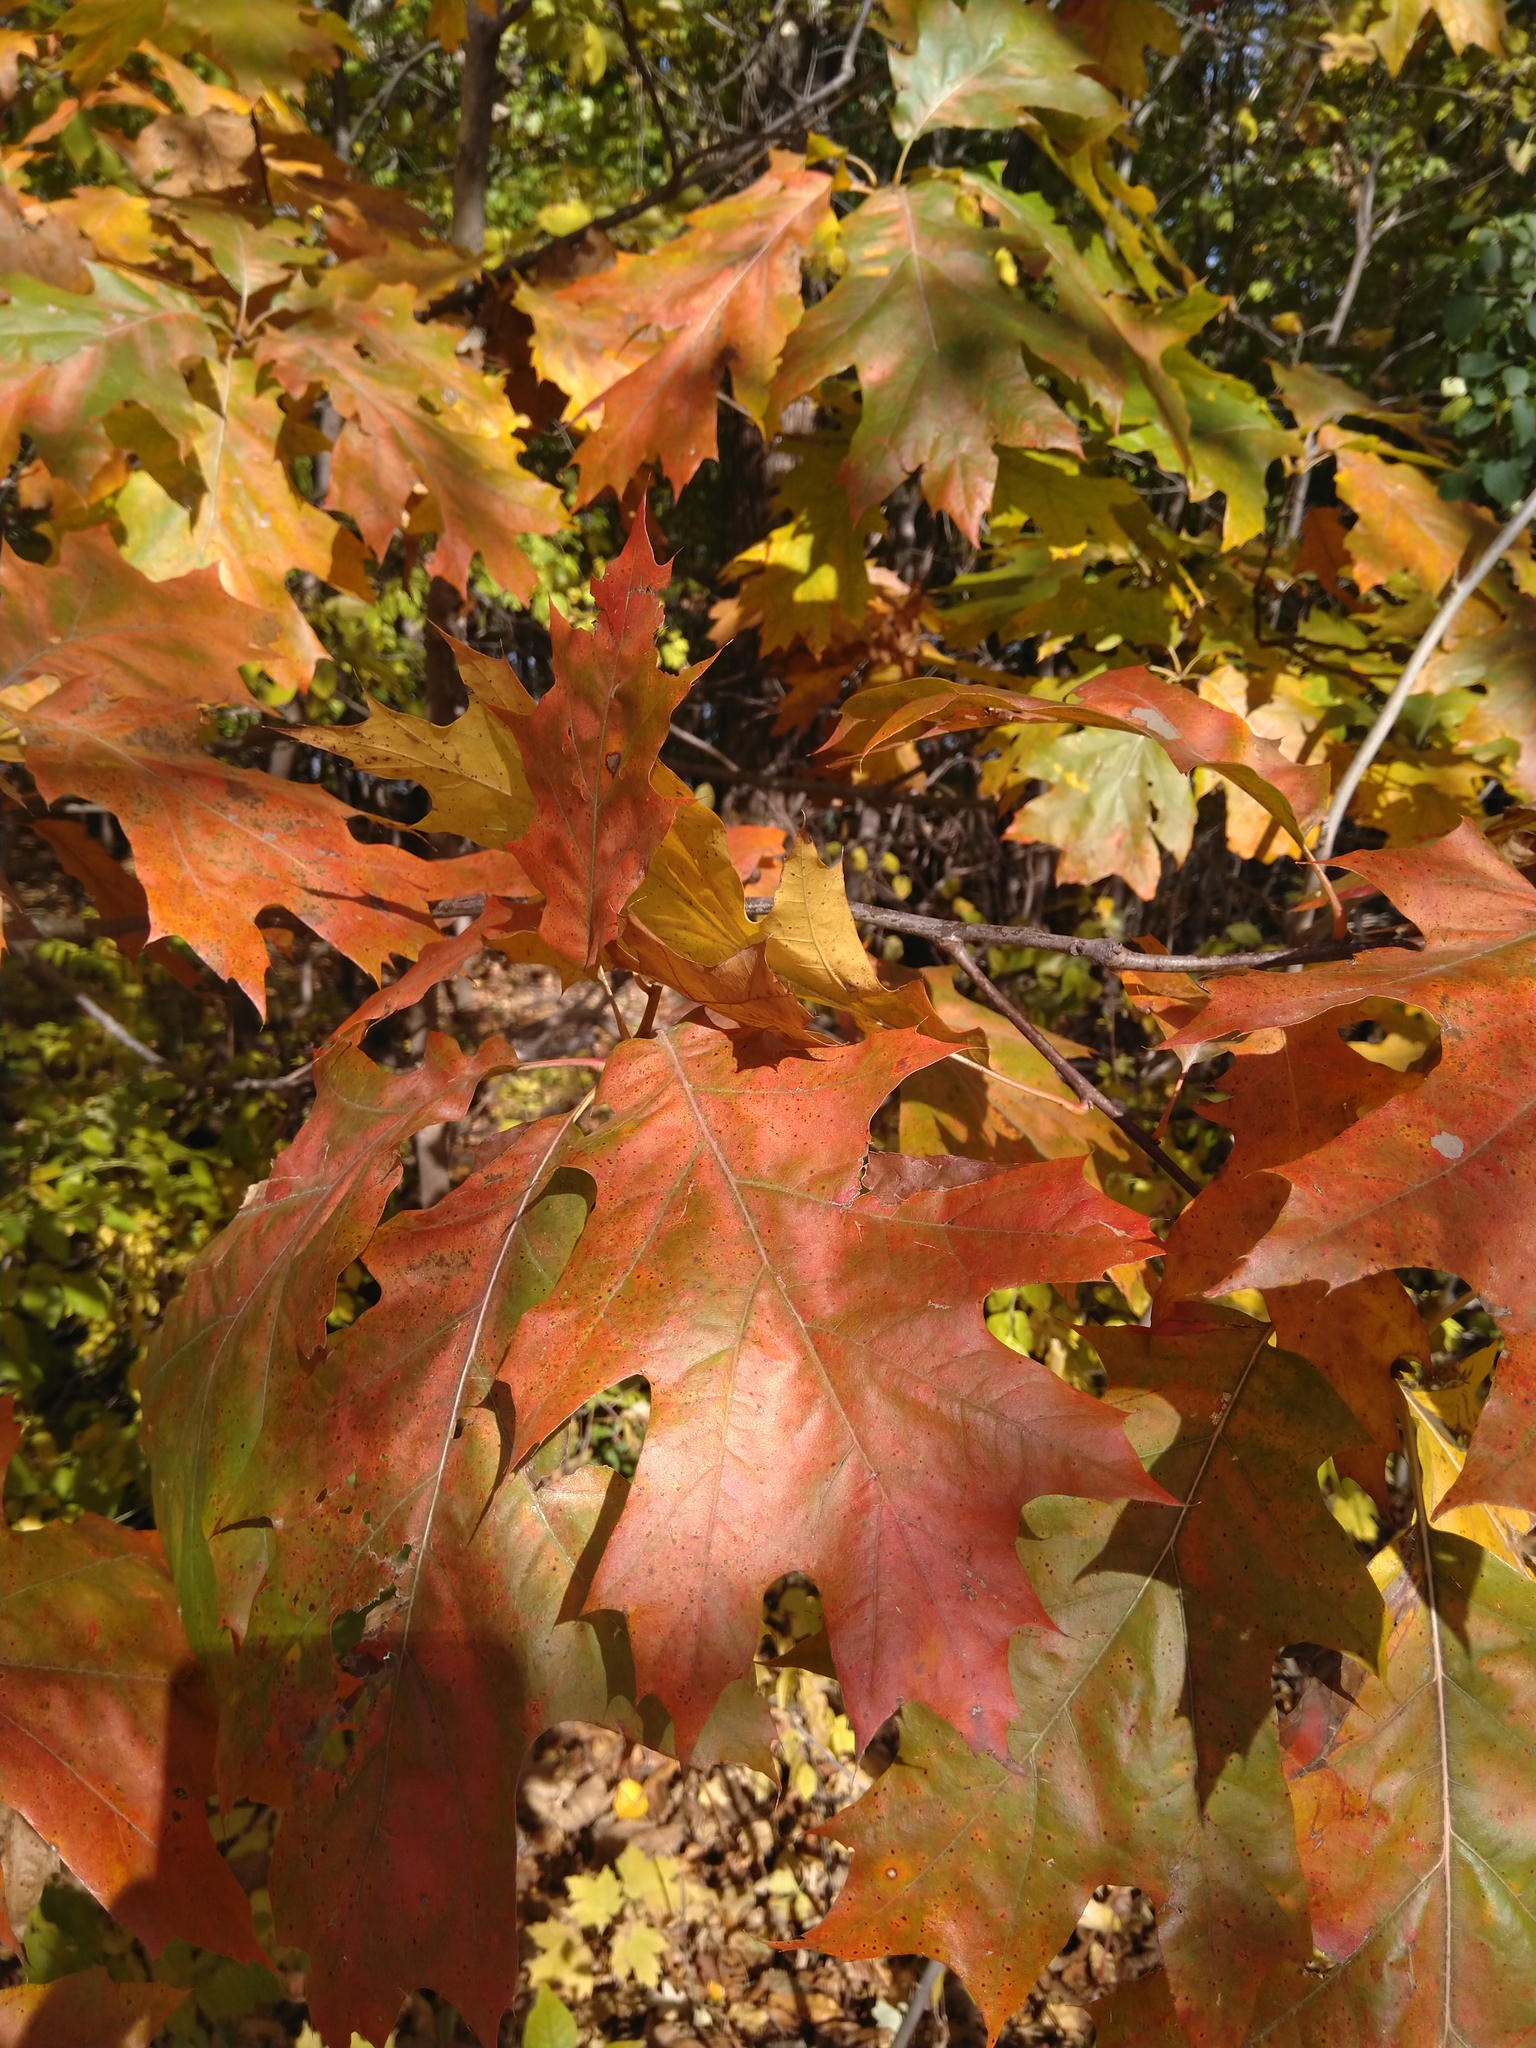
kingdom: Plantae
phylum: Tracheophyta
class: Magnoliopsida
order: Fagales
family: Fagaceae
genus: Quercus
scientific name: Quercus rubra
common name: Red oak
